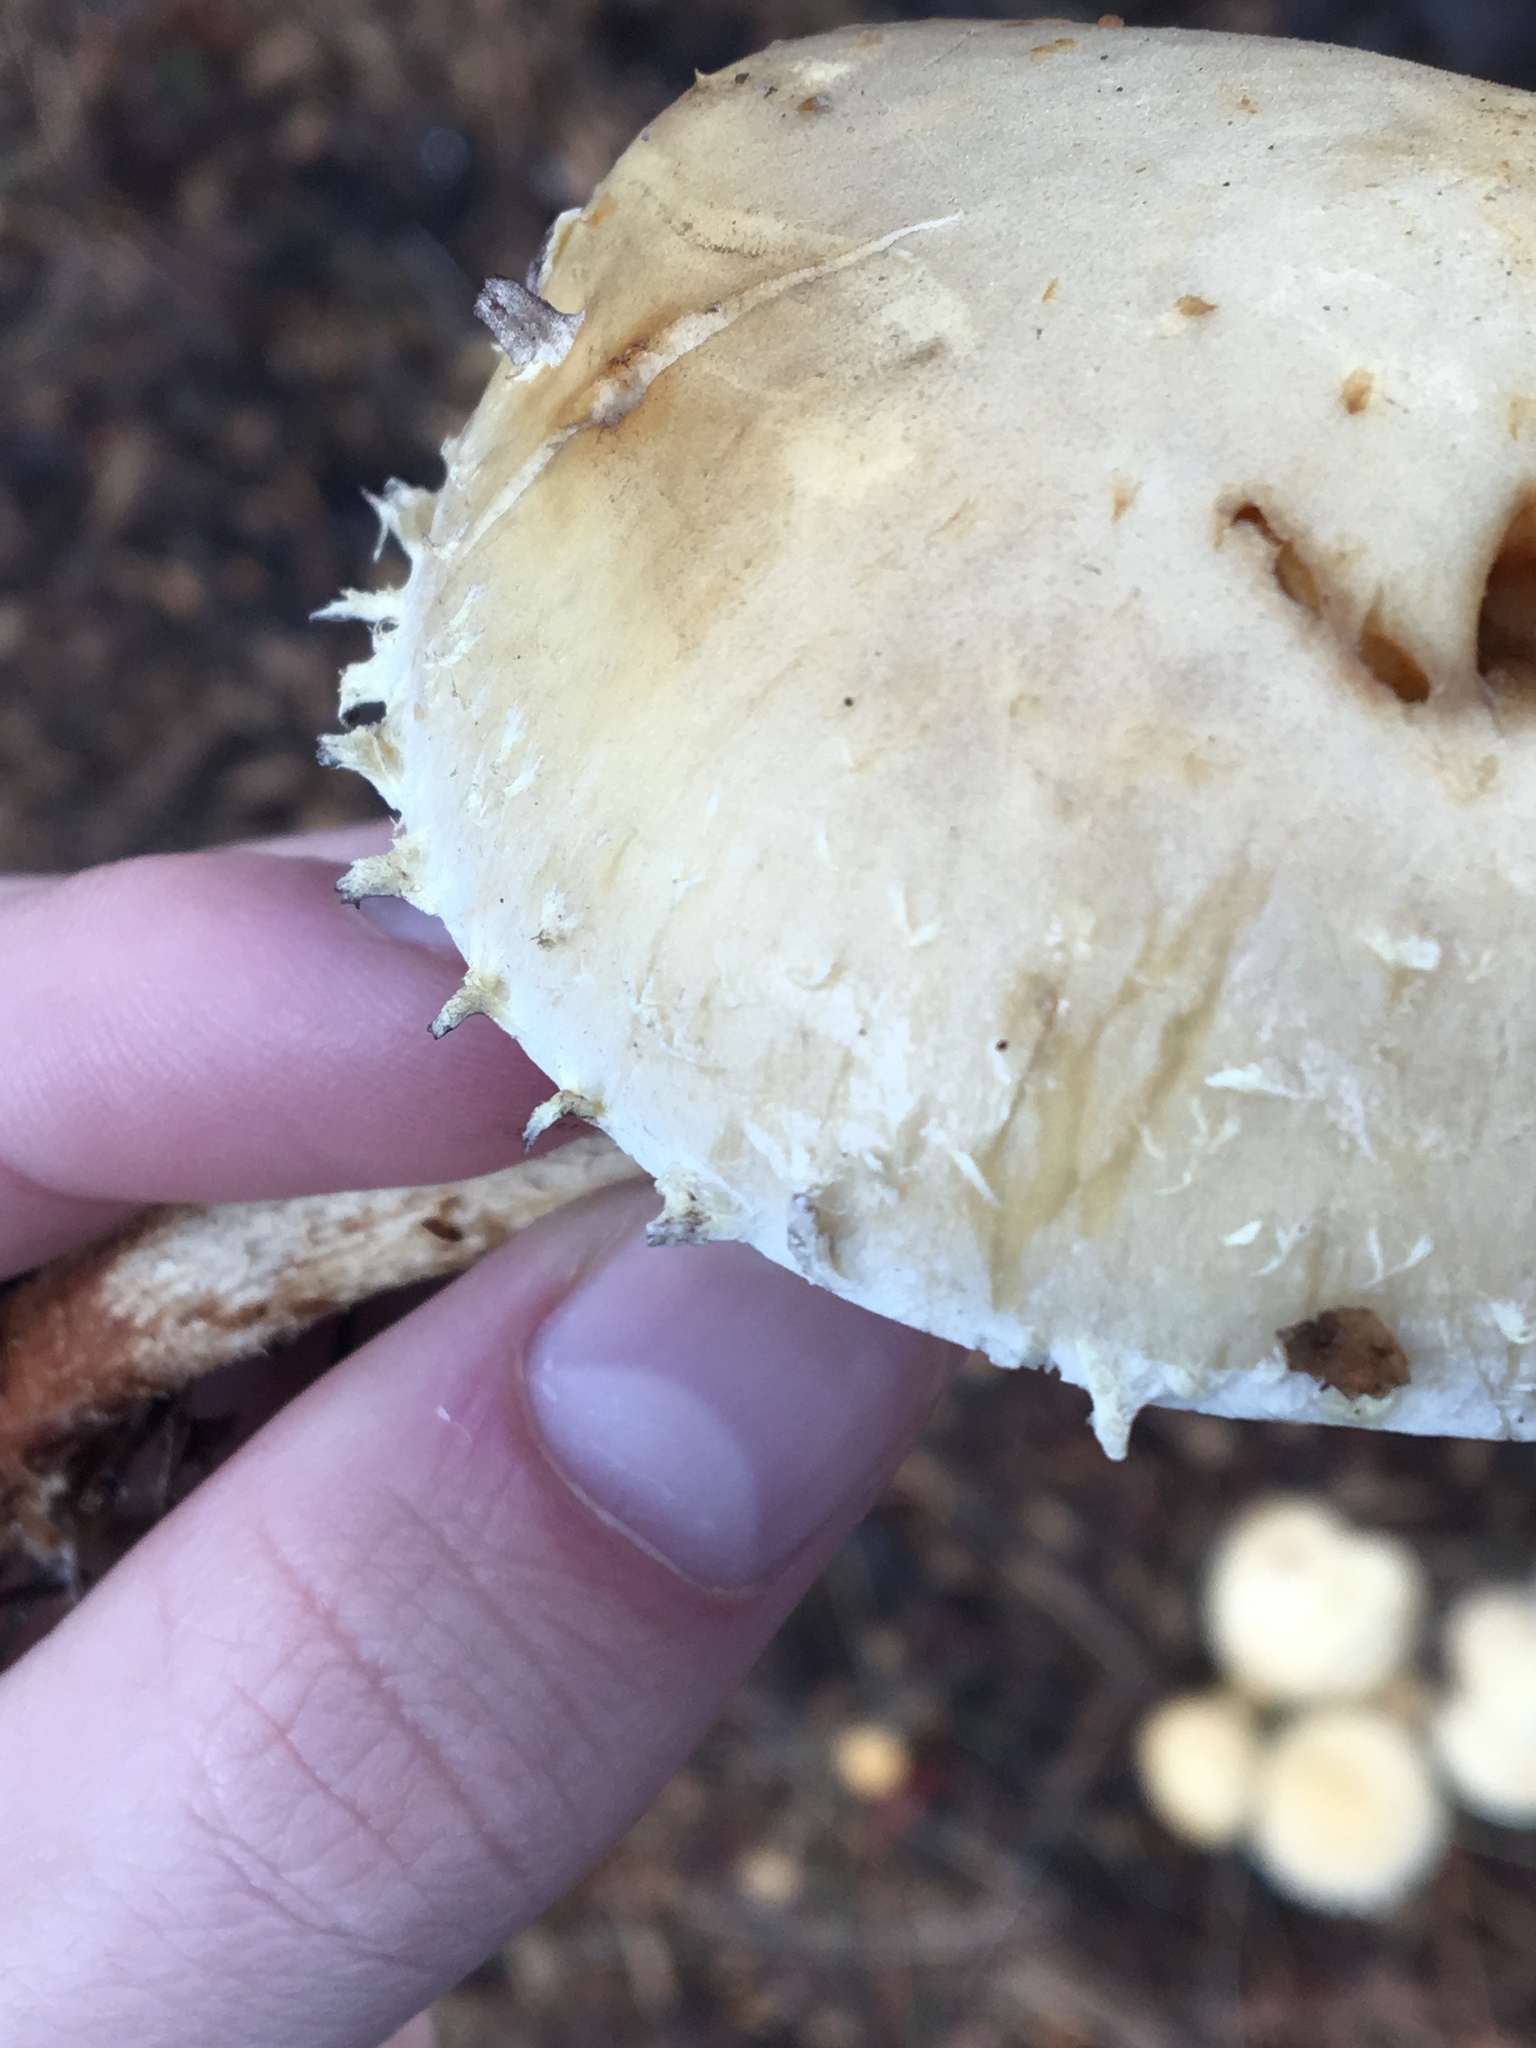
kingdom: Fungi
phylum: Basidiomycota
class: Agaricomycetes
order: Agaricales
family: Strophariaceae
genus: Leratiomyces
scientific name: Leratiomyces percevalii
